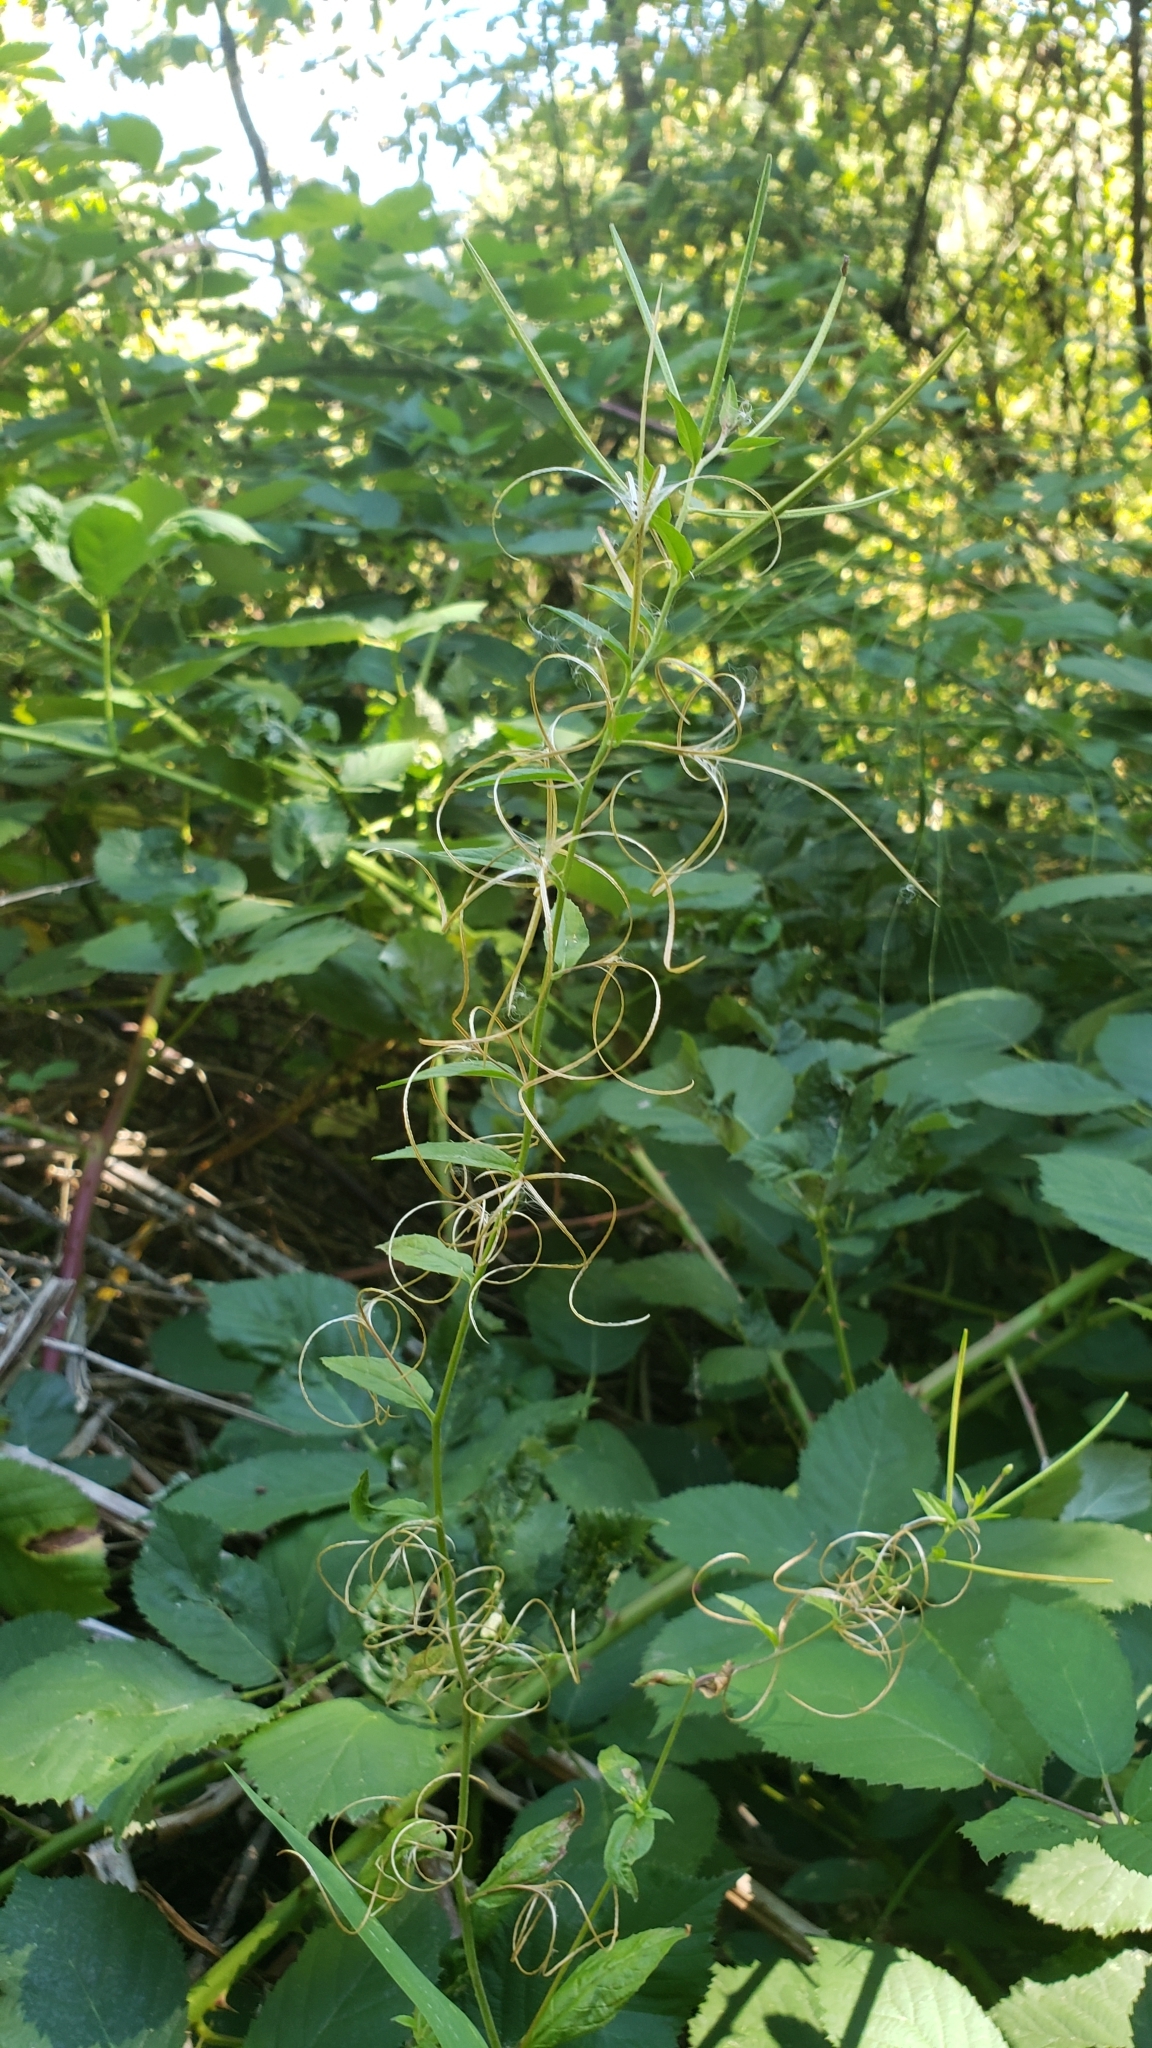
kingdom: Plantae
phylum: Tracheophyta
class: Magnoliopsida
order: Myrtales
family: Onagraceae
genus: Epilobium
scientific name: Epilobium ciliatum
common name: American willowherb
